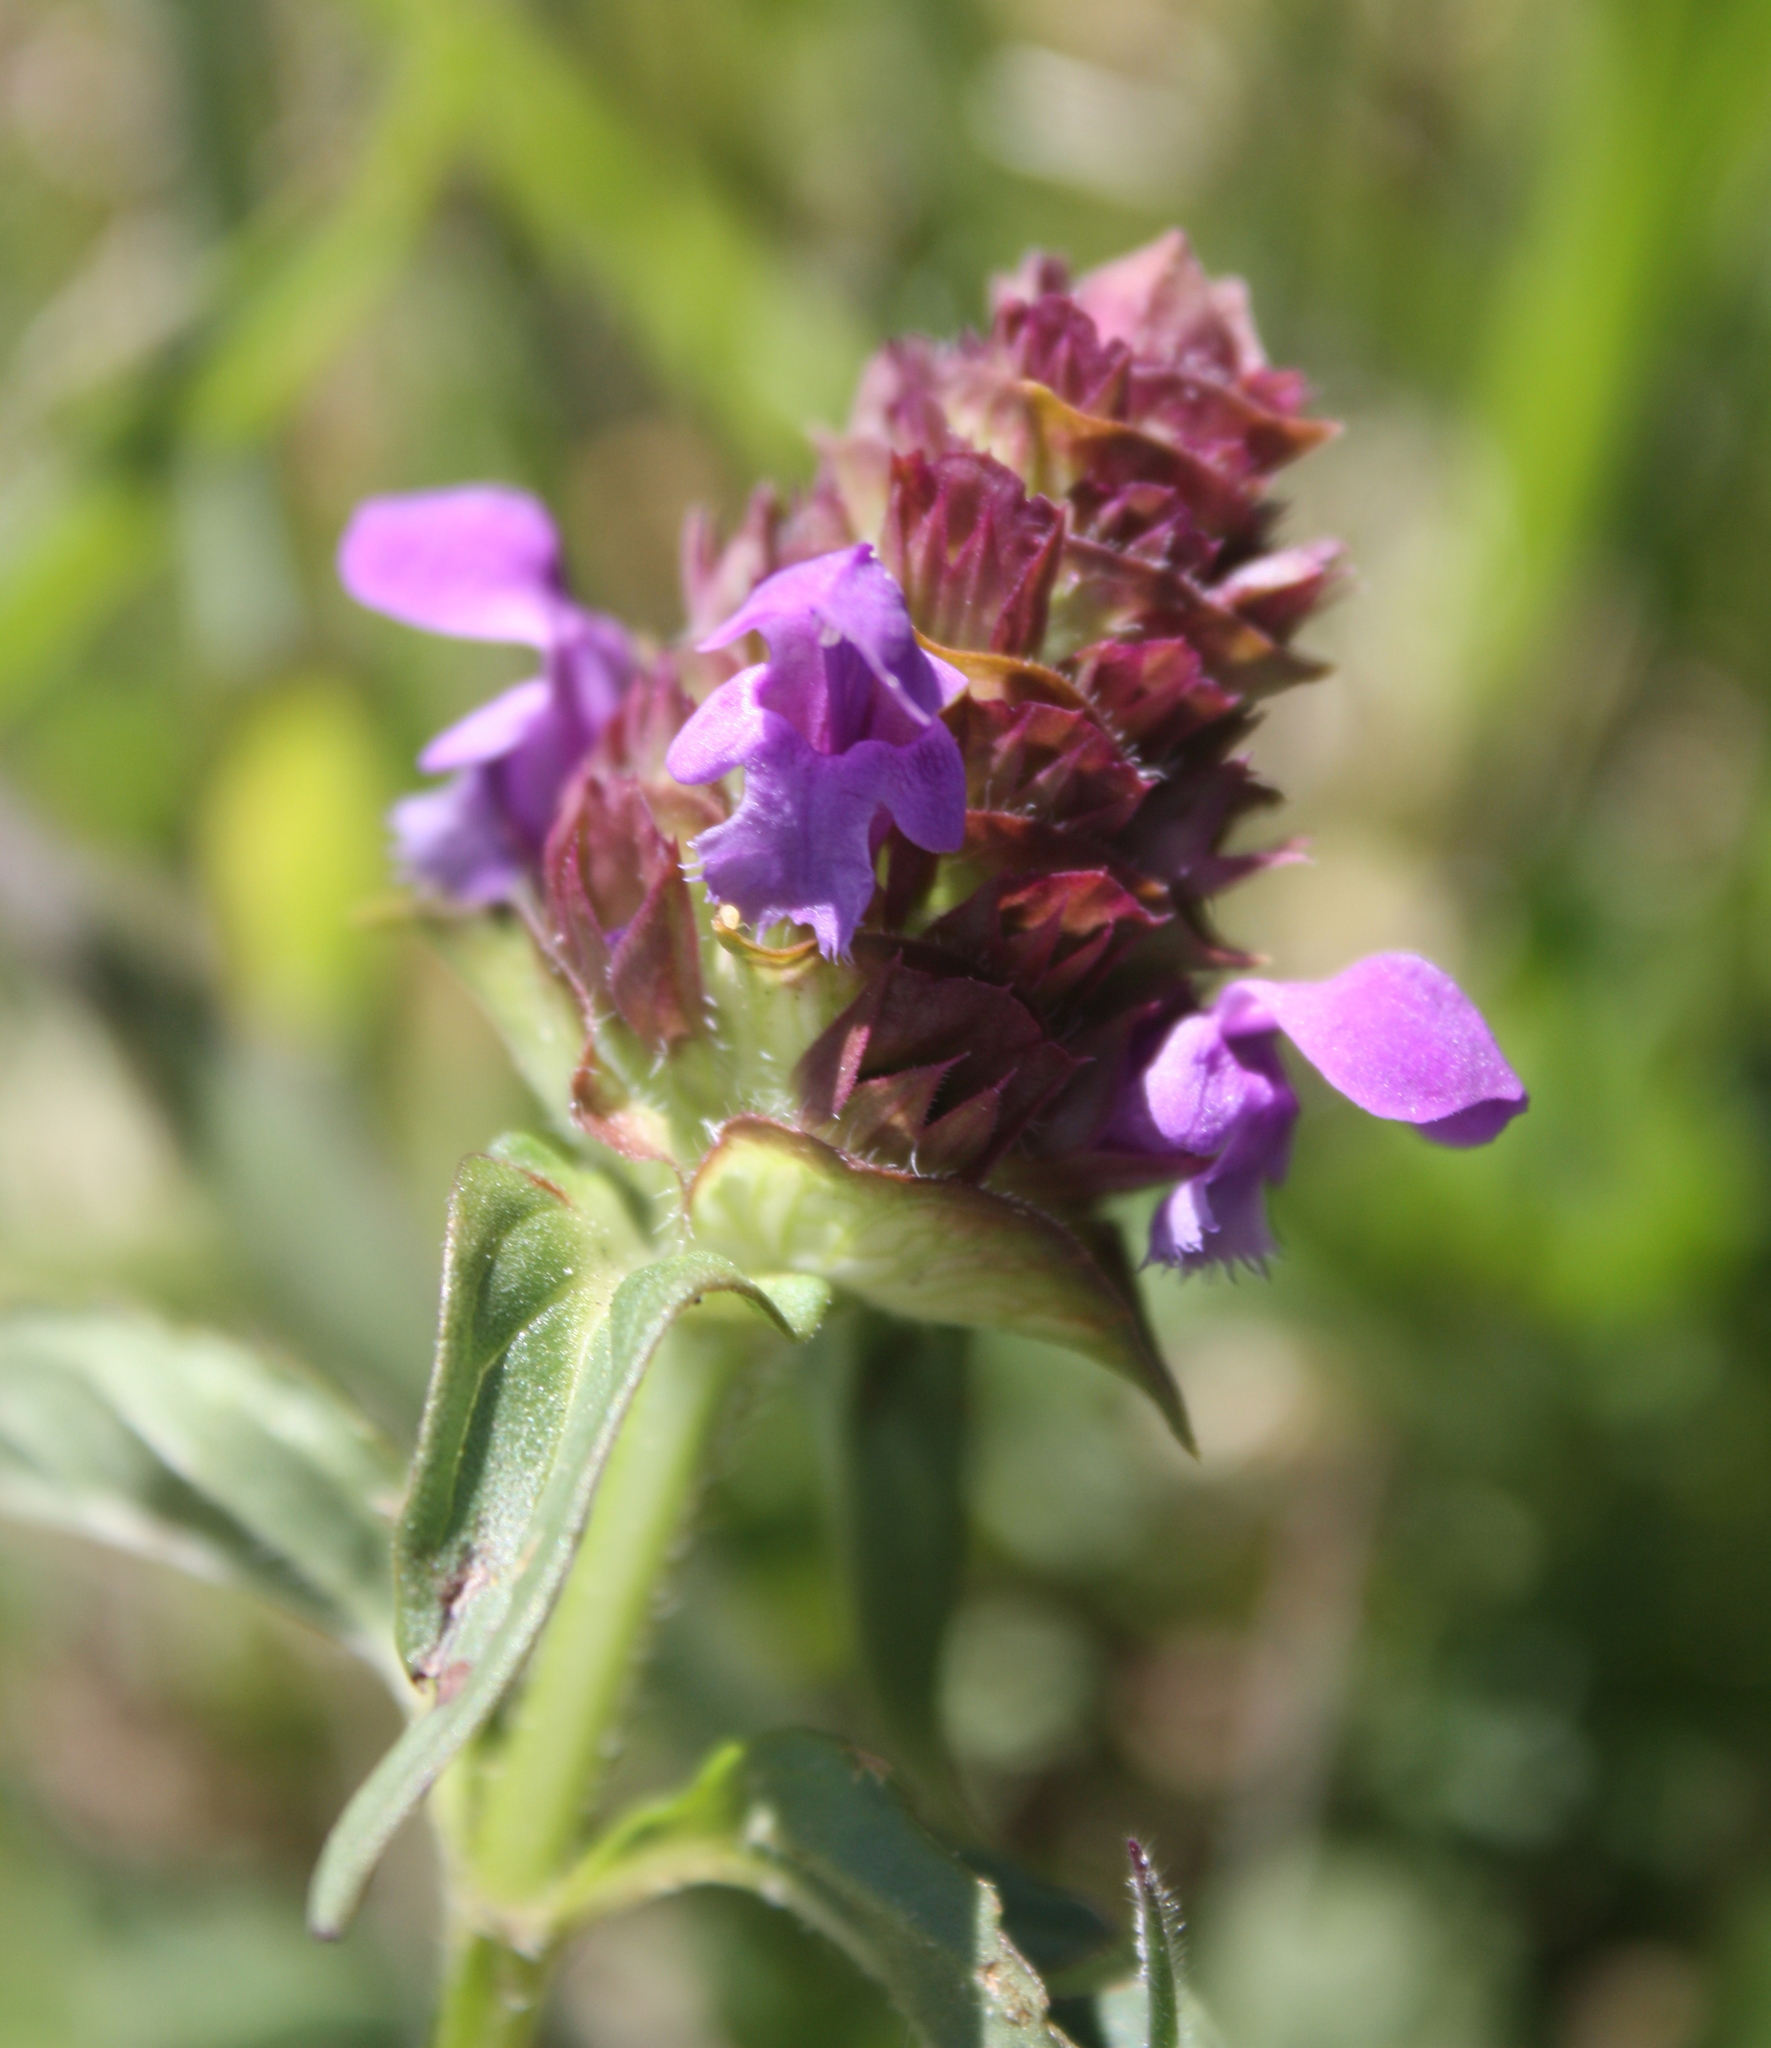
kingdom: Plantae
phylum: Tracheophyta
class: Magnoliopsida
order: Lamiales
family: Lamiaceae
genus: Prunella
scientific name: Prunella vulgaris
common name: Heal-all
